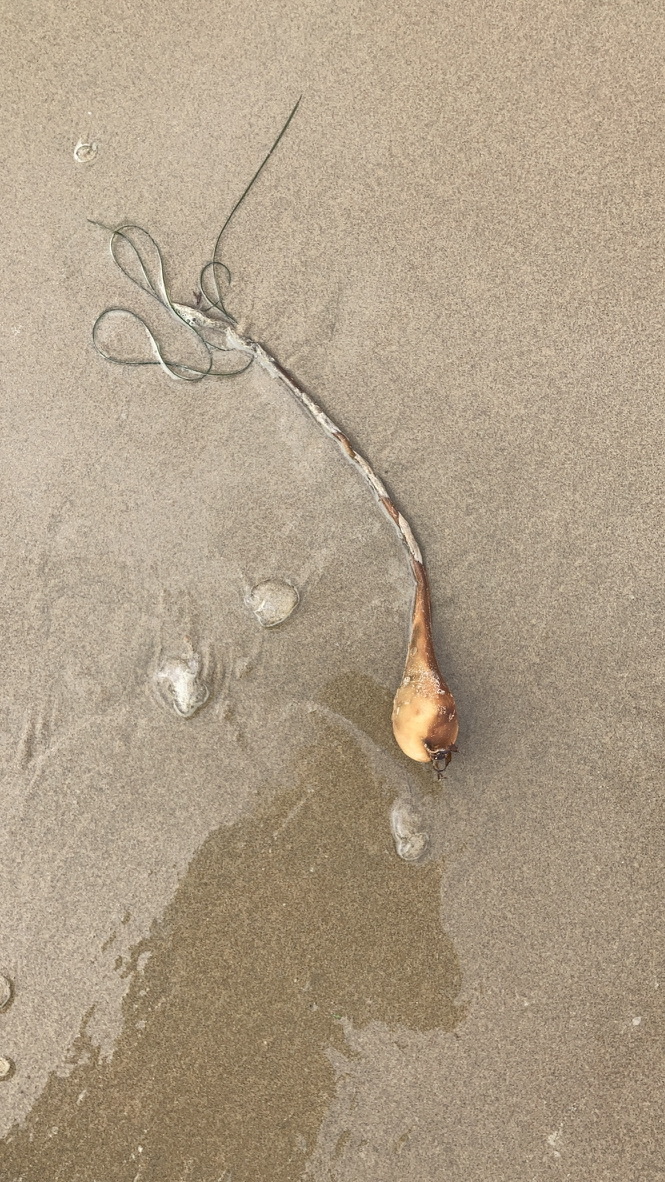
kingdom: Chromista
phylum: Ochrophyta
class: Phaeophyceae
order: Laminariales
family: Laminariaceae
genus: Nereocystis
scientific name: Nereocystis luetkeana
